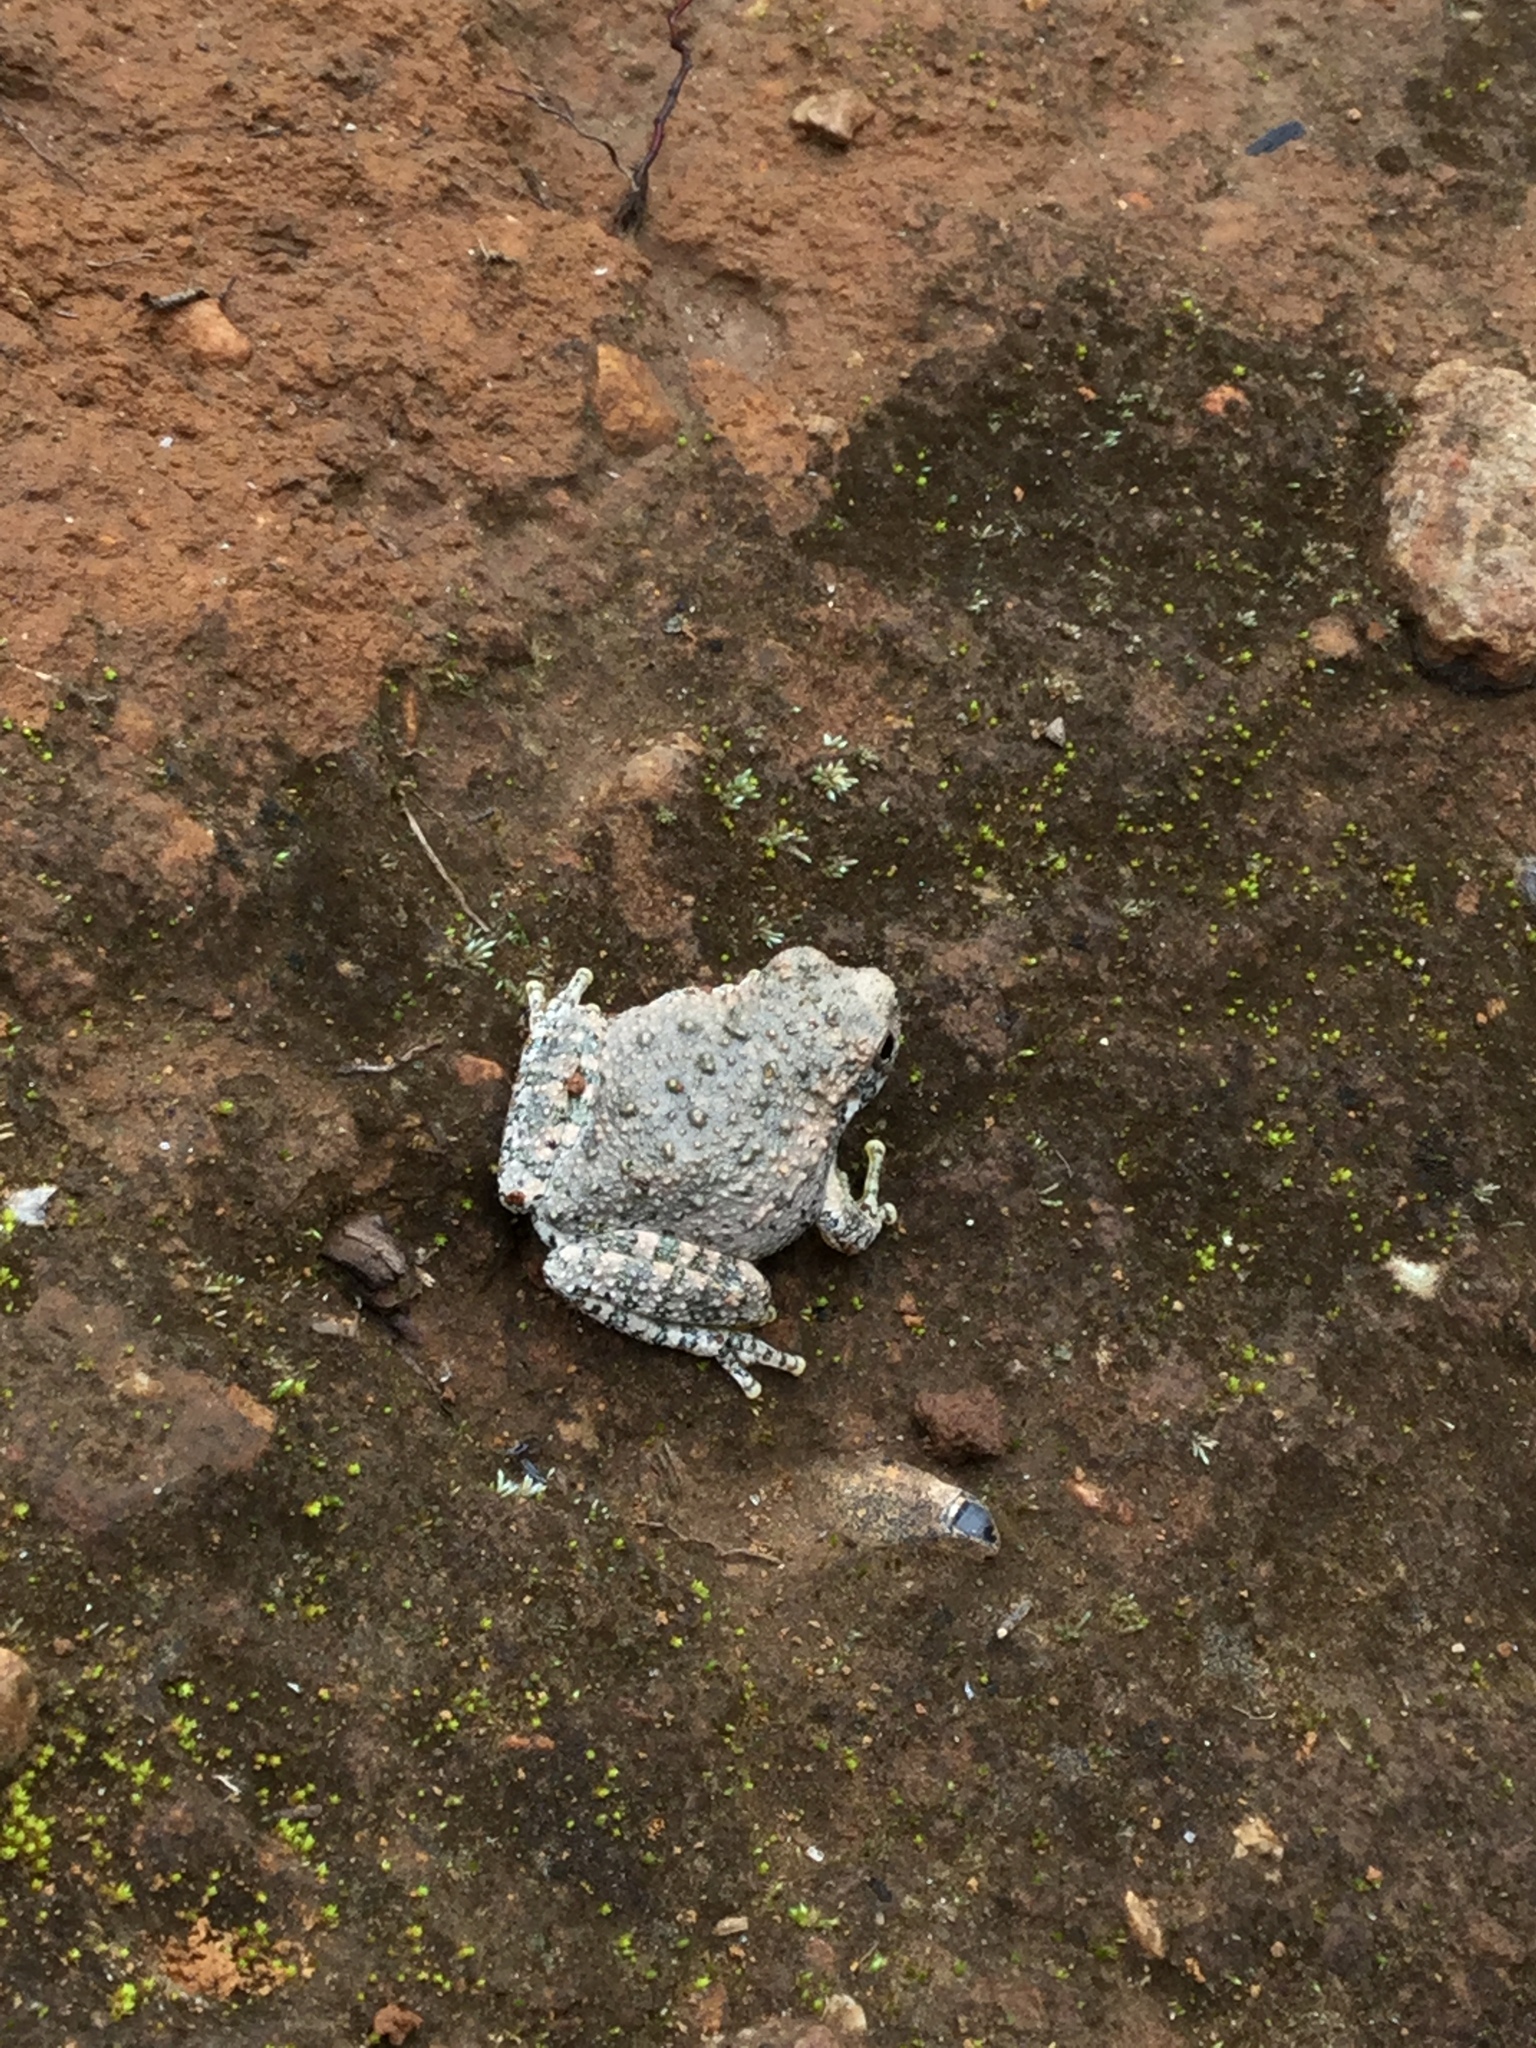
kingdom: Animalia
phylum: Chordata
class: Amphibia
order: Anura
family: Hylidae
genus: Dryophytes
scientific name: Dryophytes arenicolor
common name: Canyon treefrog
